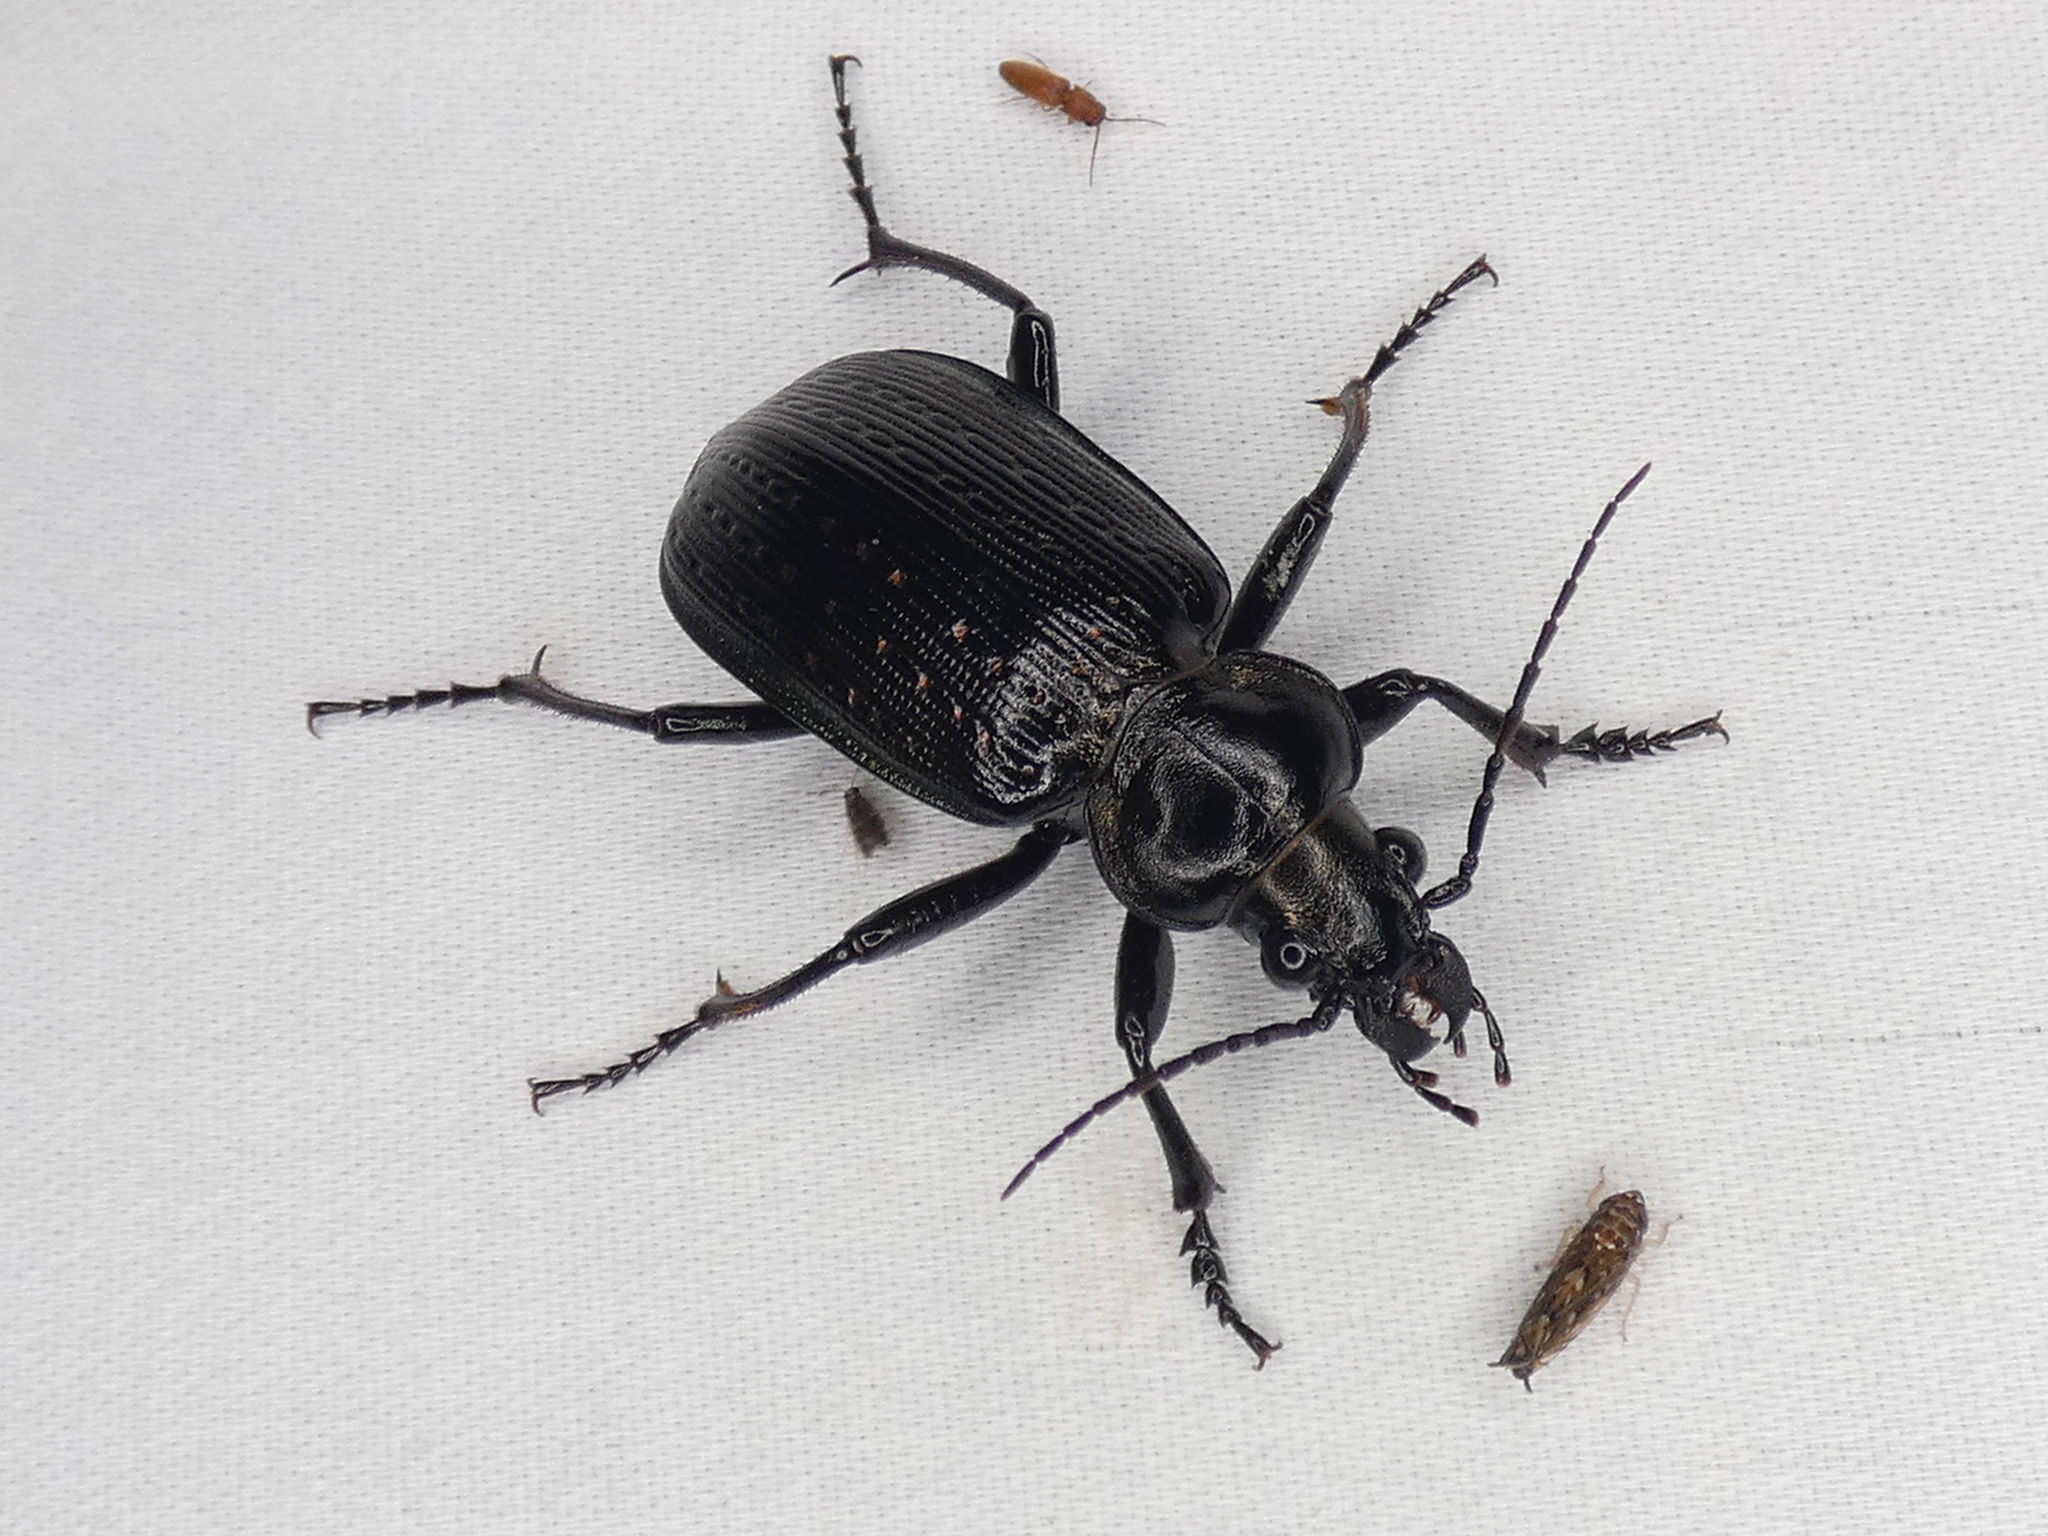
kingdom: Animalia
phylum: Arthropoda
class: Insecta
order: Coleoptera
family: Carabidae
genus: Calosoma
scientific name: Calosoma sayi
